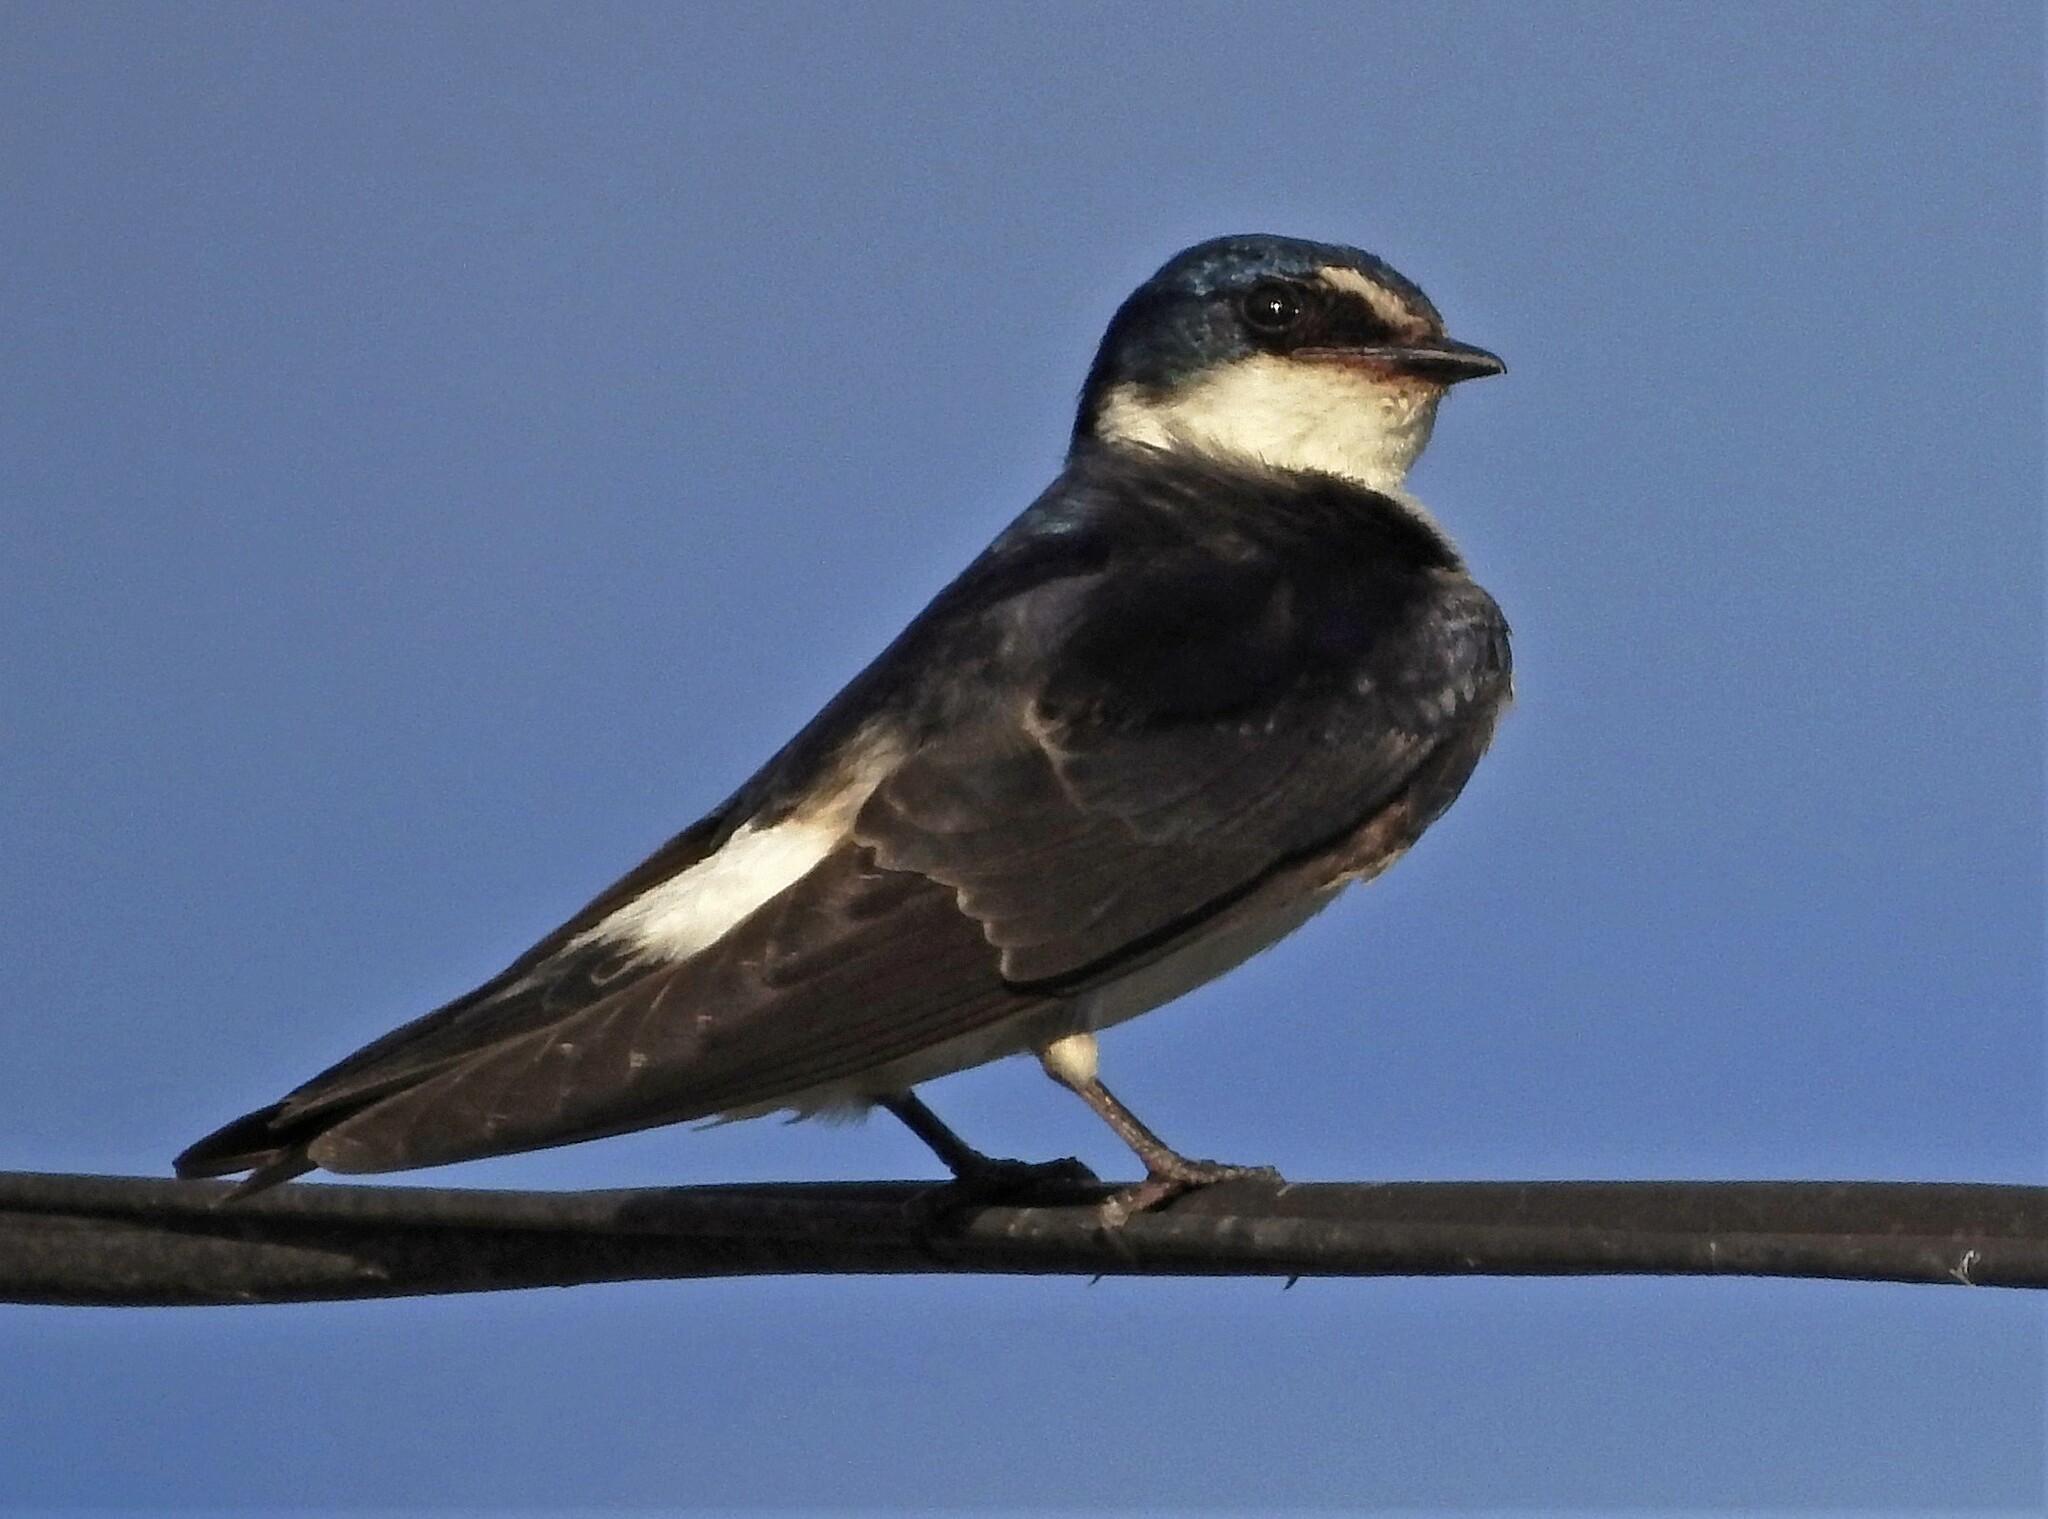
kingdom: Animalia
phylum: Chordata
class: Aves
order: Passeriformes
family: Hirundinidae
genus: Tachycineta
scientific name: Tachycineta leucorrhoa
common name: White-rumped swallow
